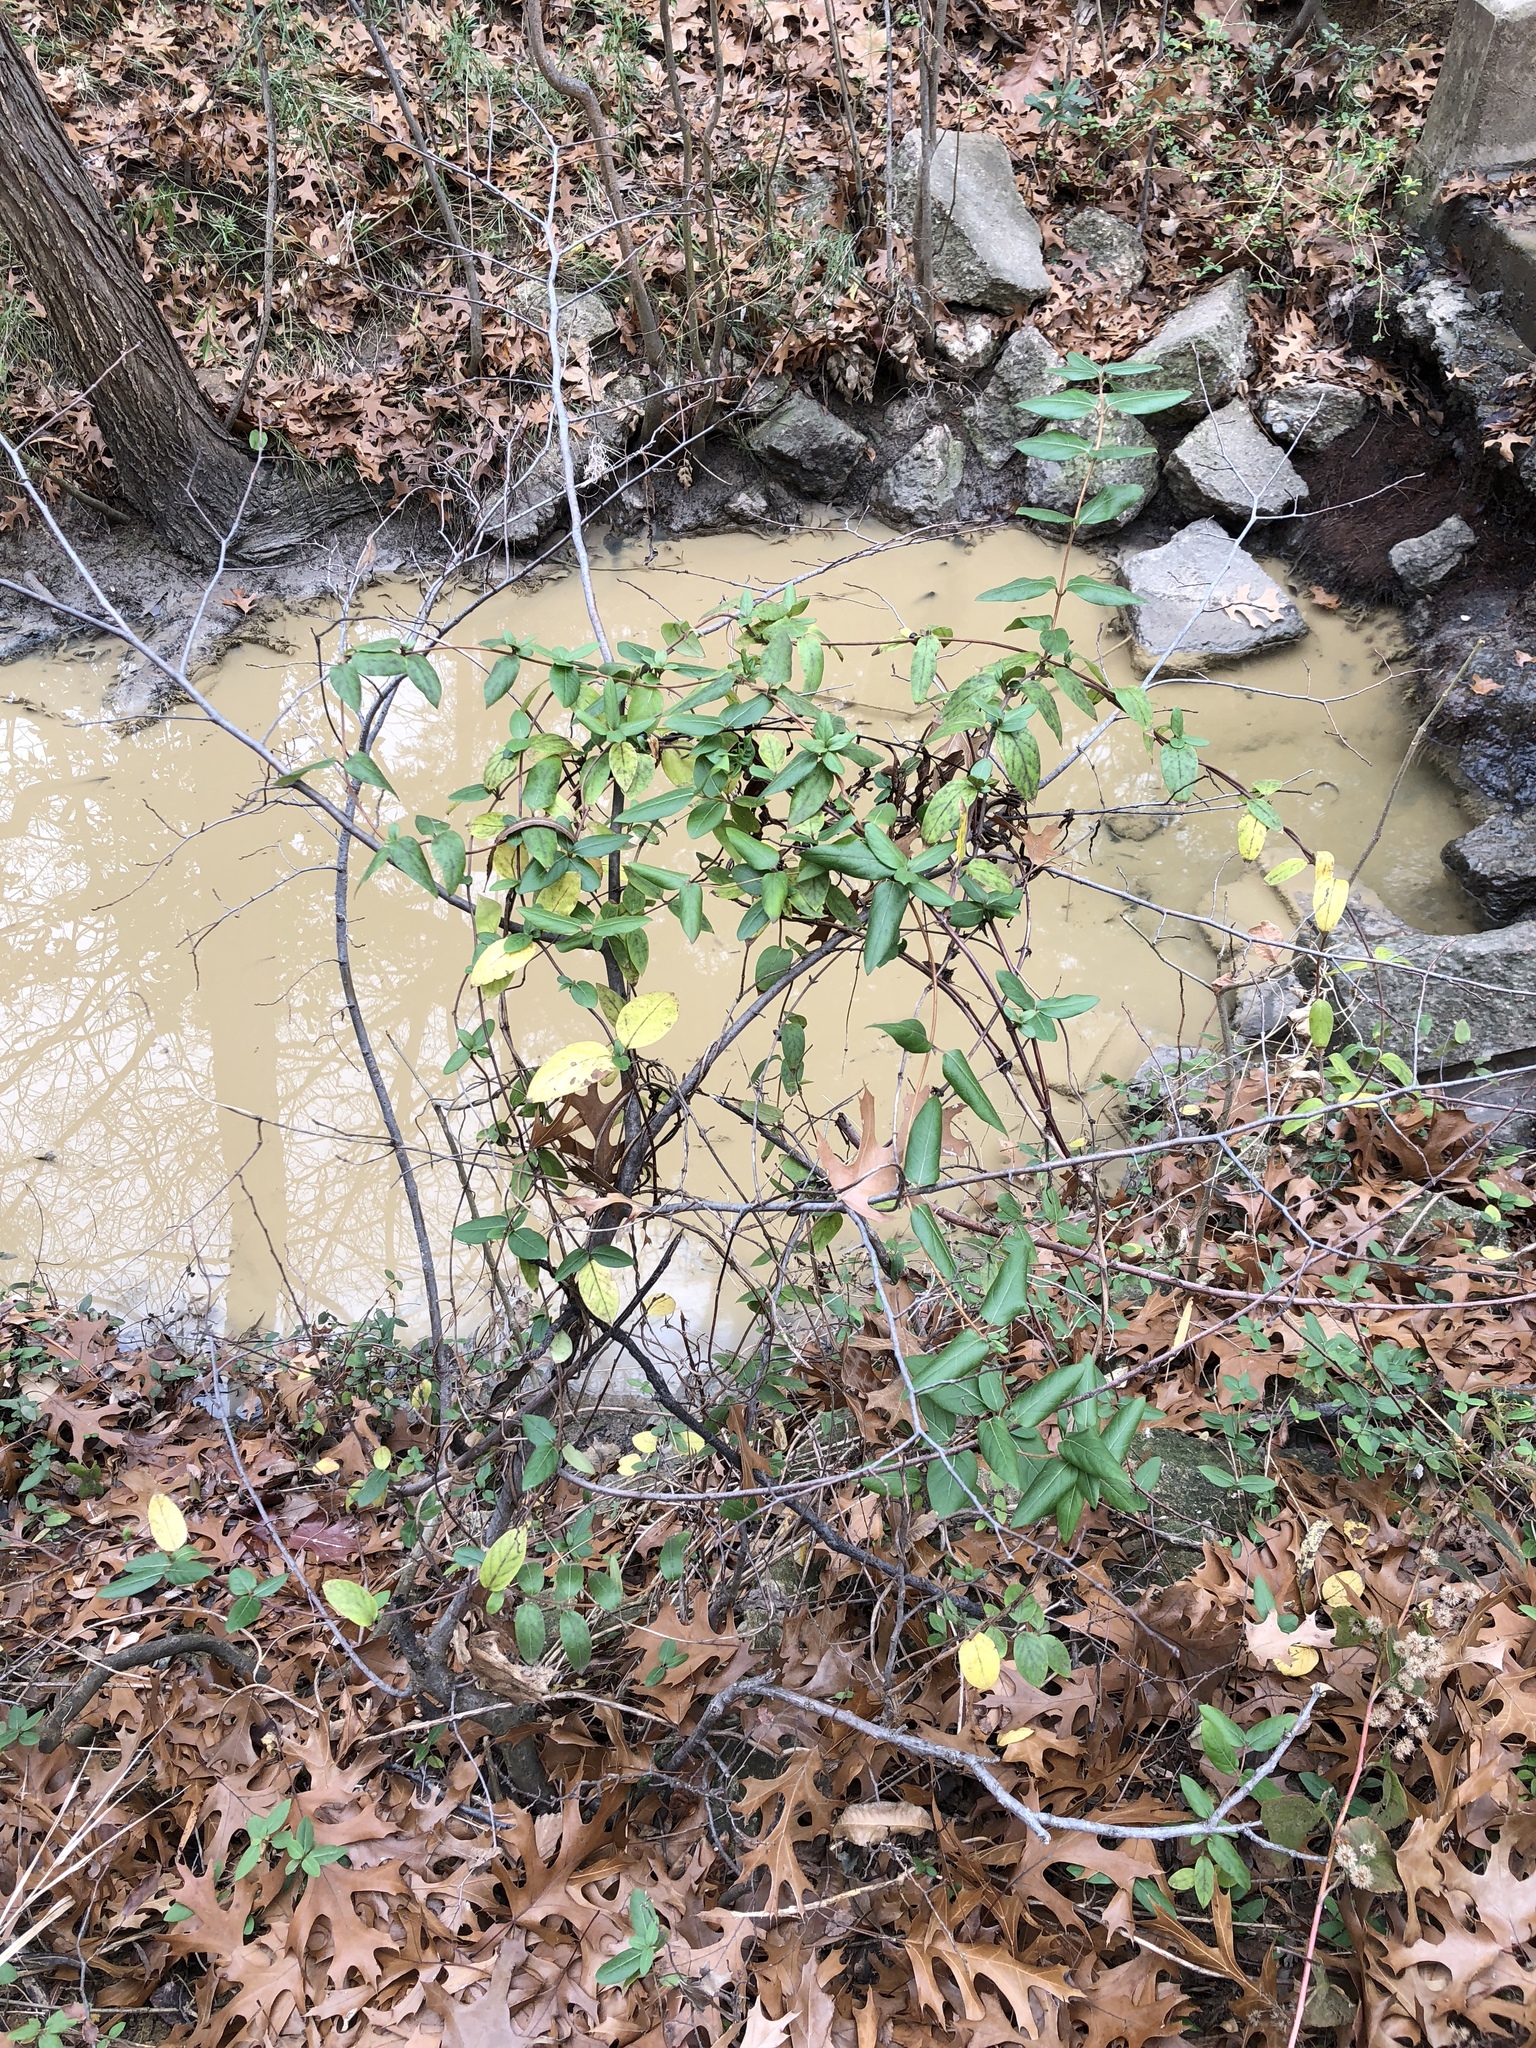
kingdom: Plantae
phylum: Tracheophyta
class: Magnoliopsida
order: Dipsacales
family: Caprifoliaceae
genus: Lonicera
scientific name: Lonicera japonica
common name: Japanese honeysuckle
